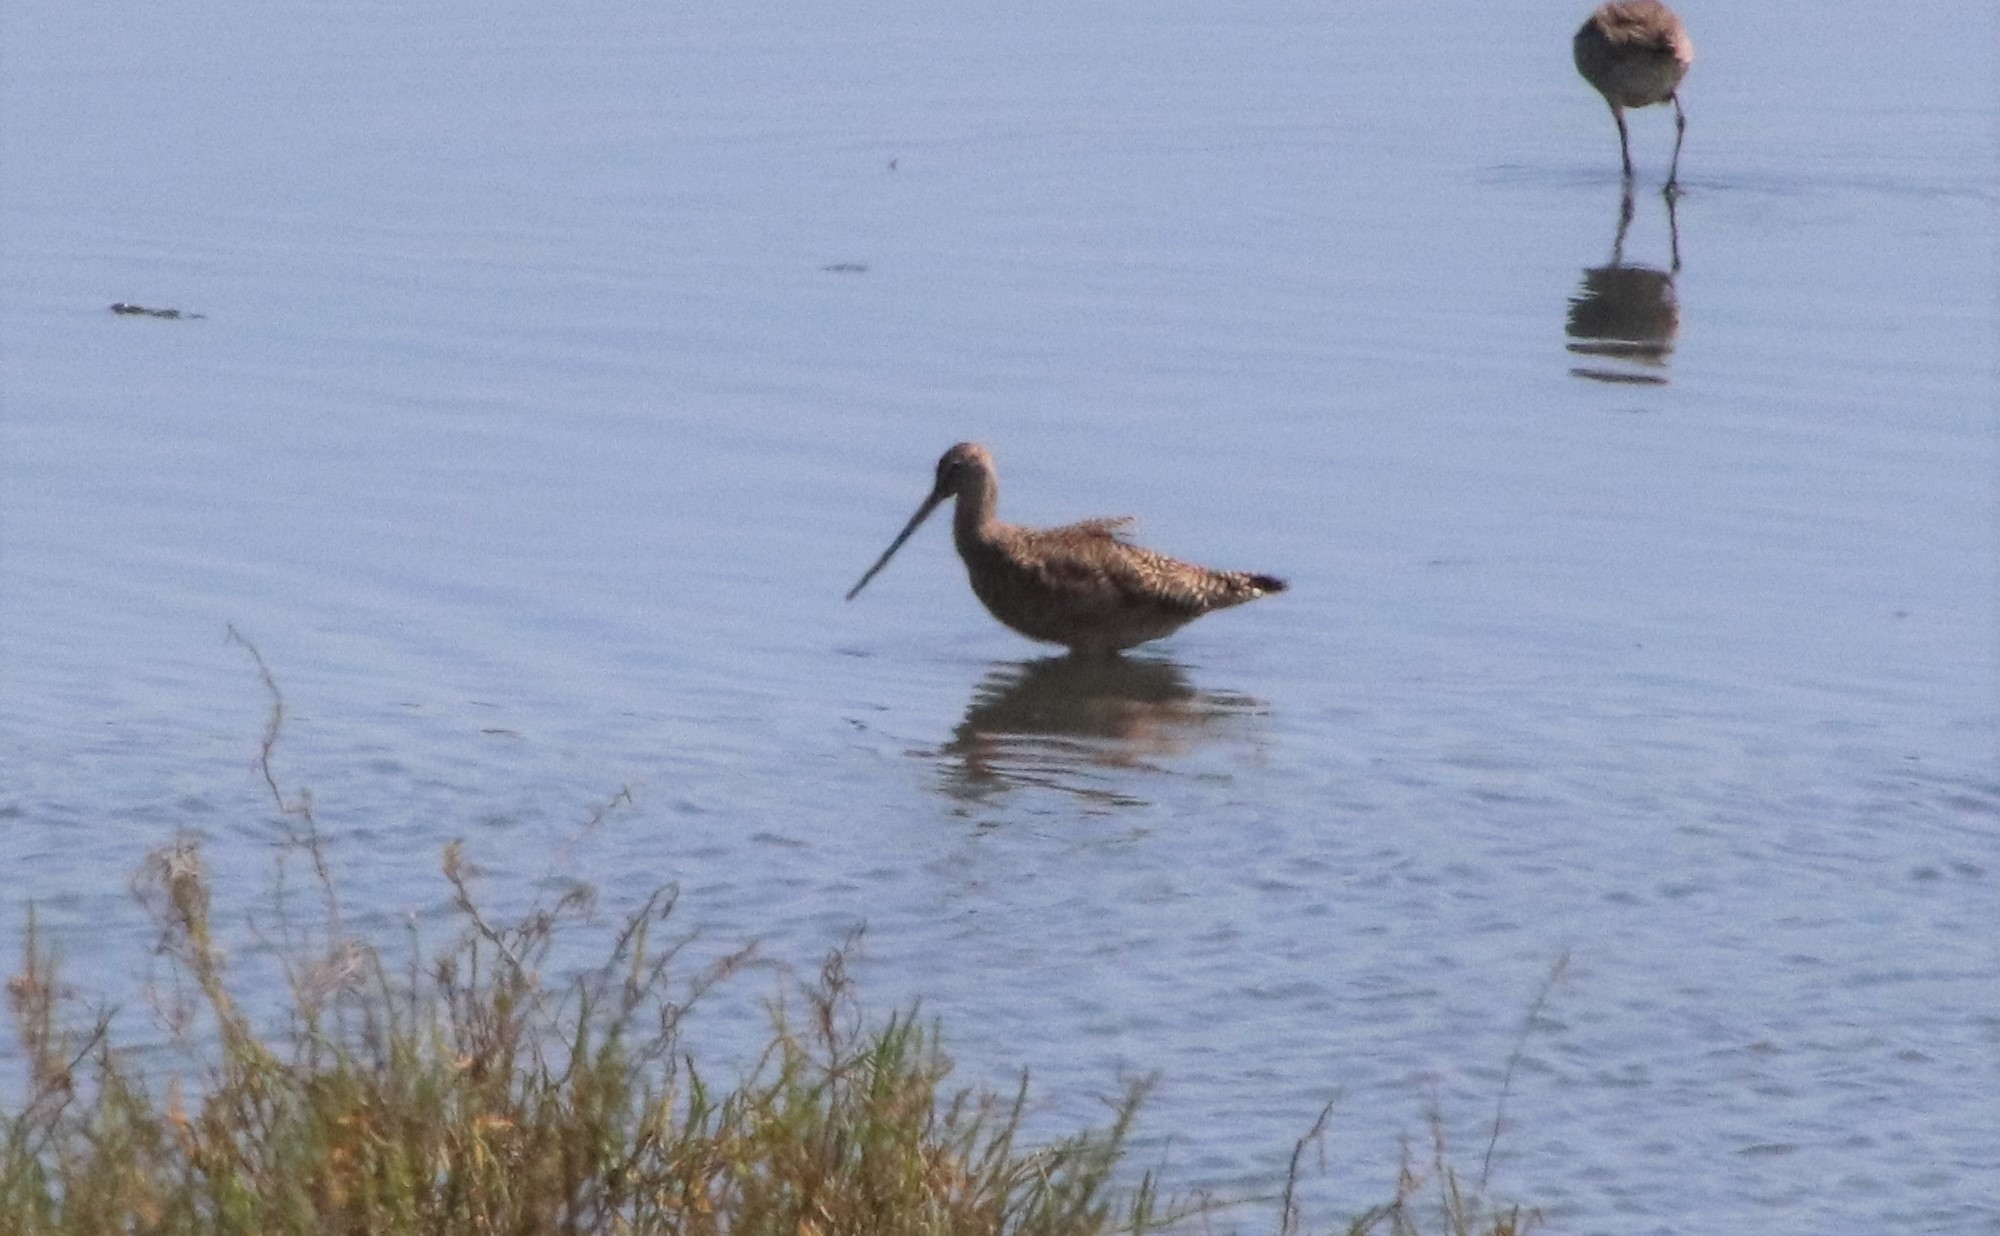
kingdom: Animalia
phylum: Chordata
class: Aves
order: Charadriiformes
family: Scolopacidae
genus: Limosa
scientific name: Limosa fedoa
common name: Marbled godwit
